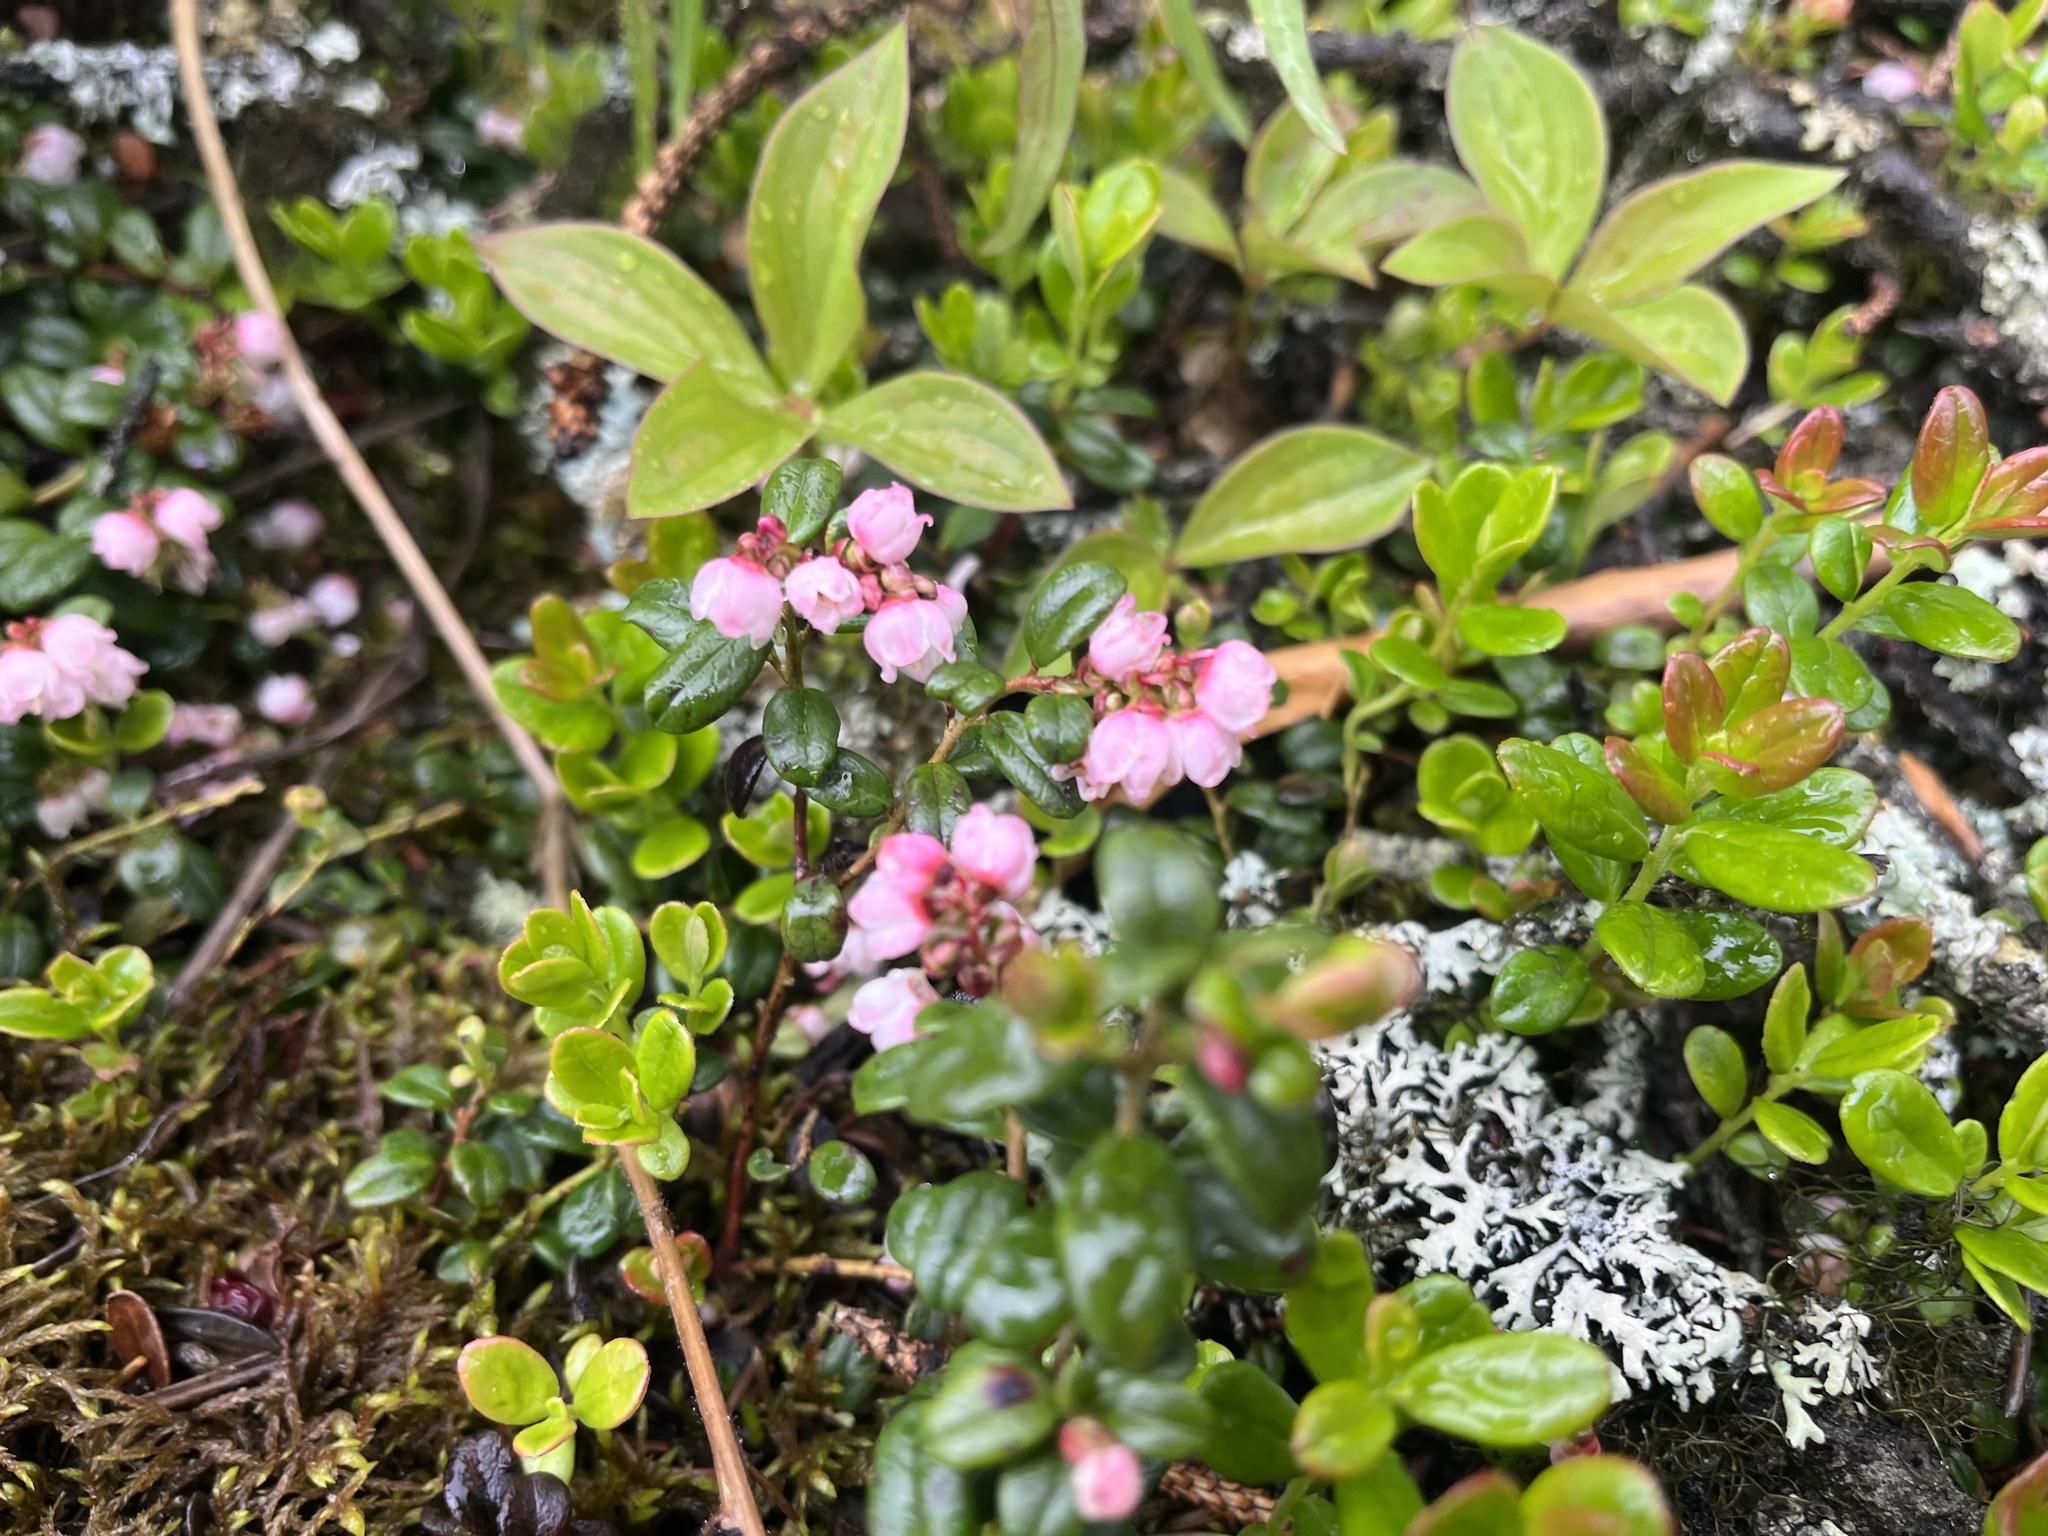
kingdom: Plantae
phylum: Tracheophyta
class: Magnoliopsida
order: Ericales
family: Ericaceae
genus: Vaccinium
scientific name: Vaccinium vitis-idaea
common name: Cowberry
